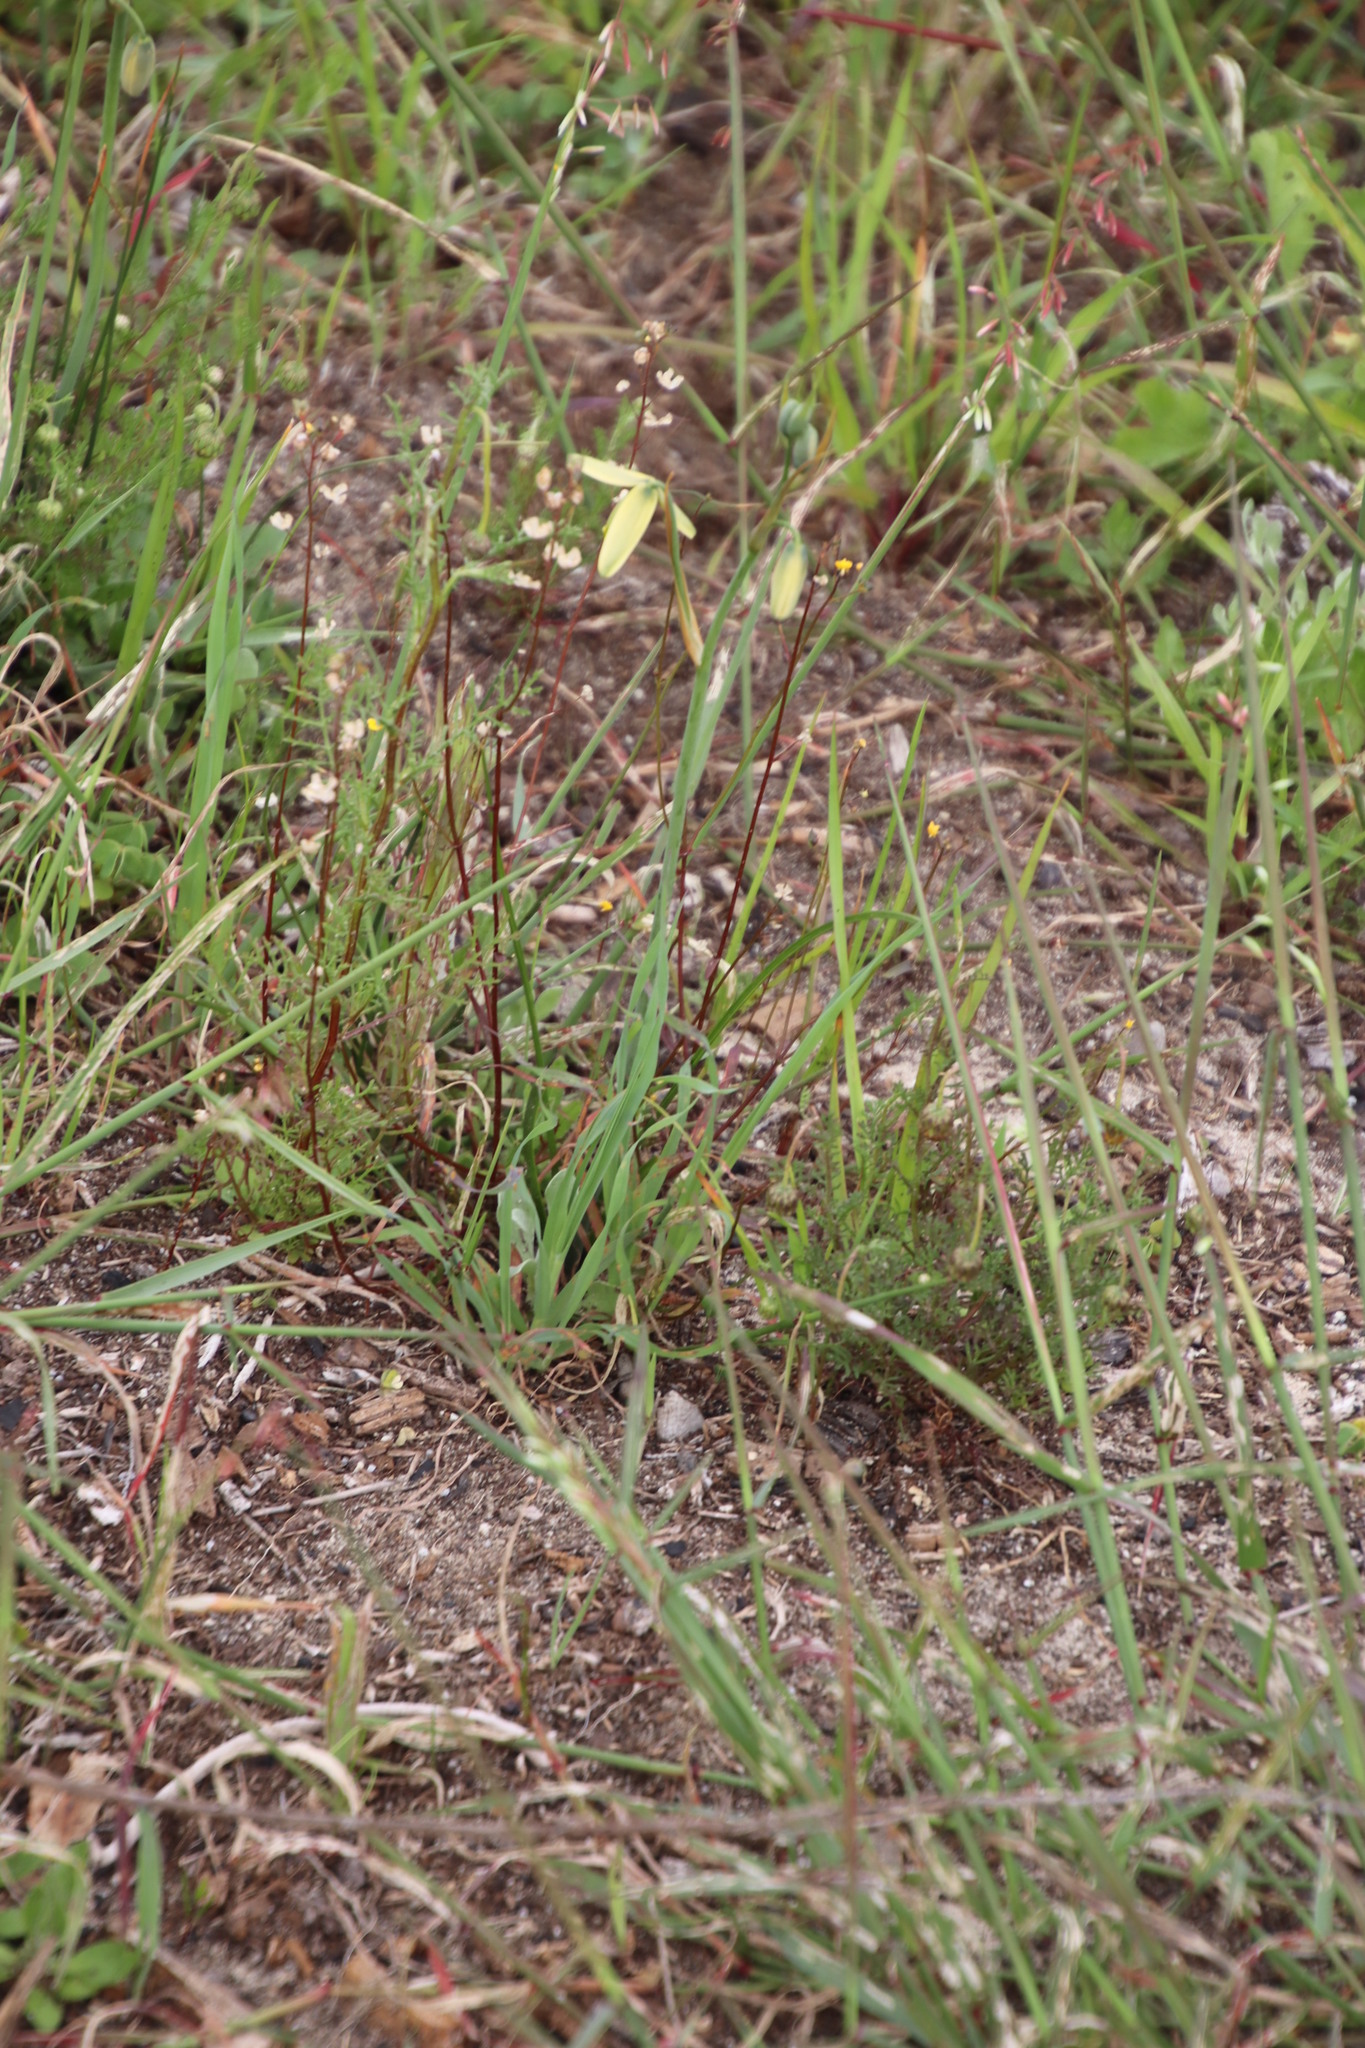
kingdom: Plantae
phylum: Tracheophyta
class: Liliopsida
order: Asparagales
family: Asparagaceae
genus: Albuca
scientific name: Albuca cooperi
